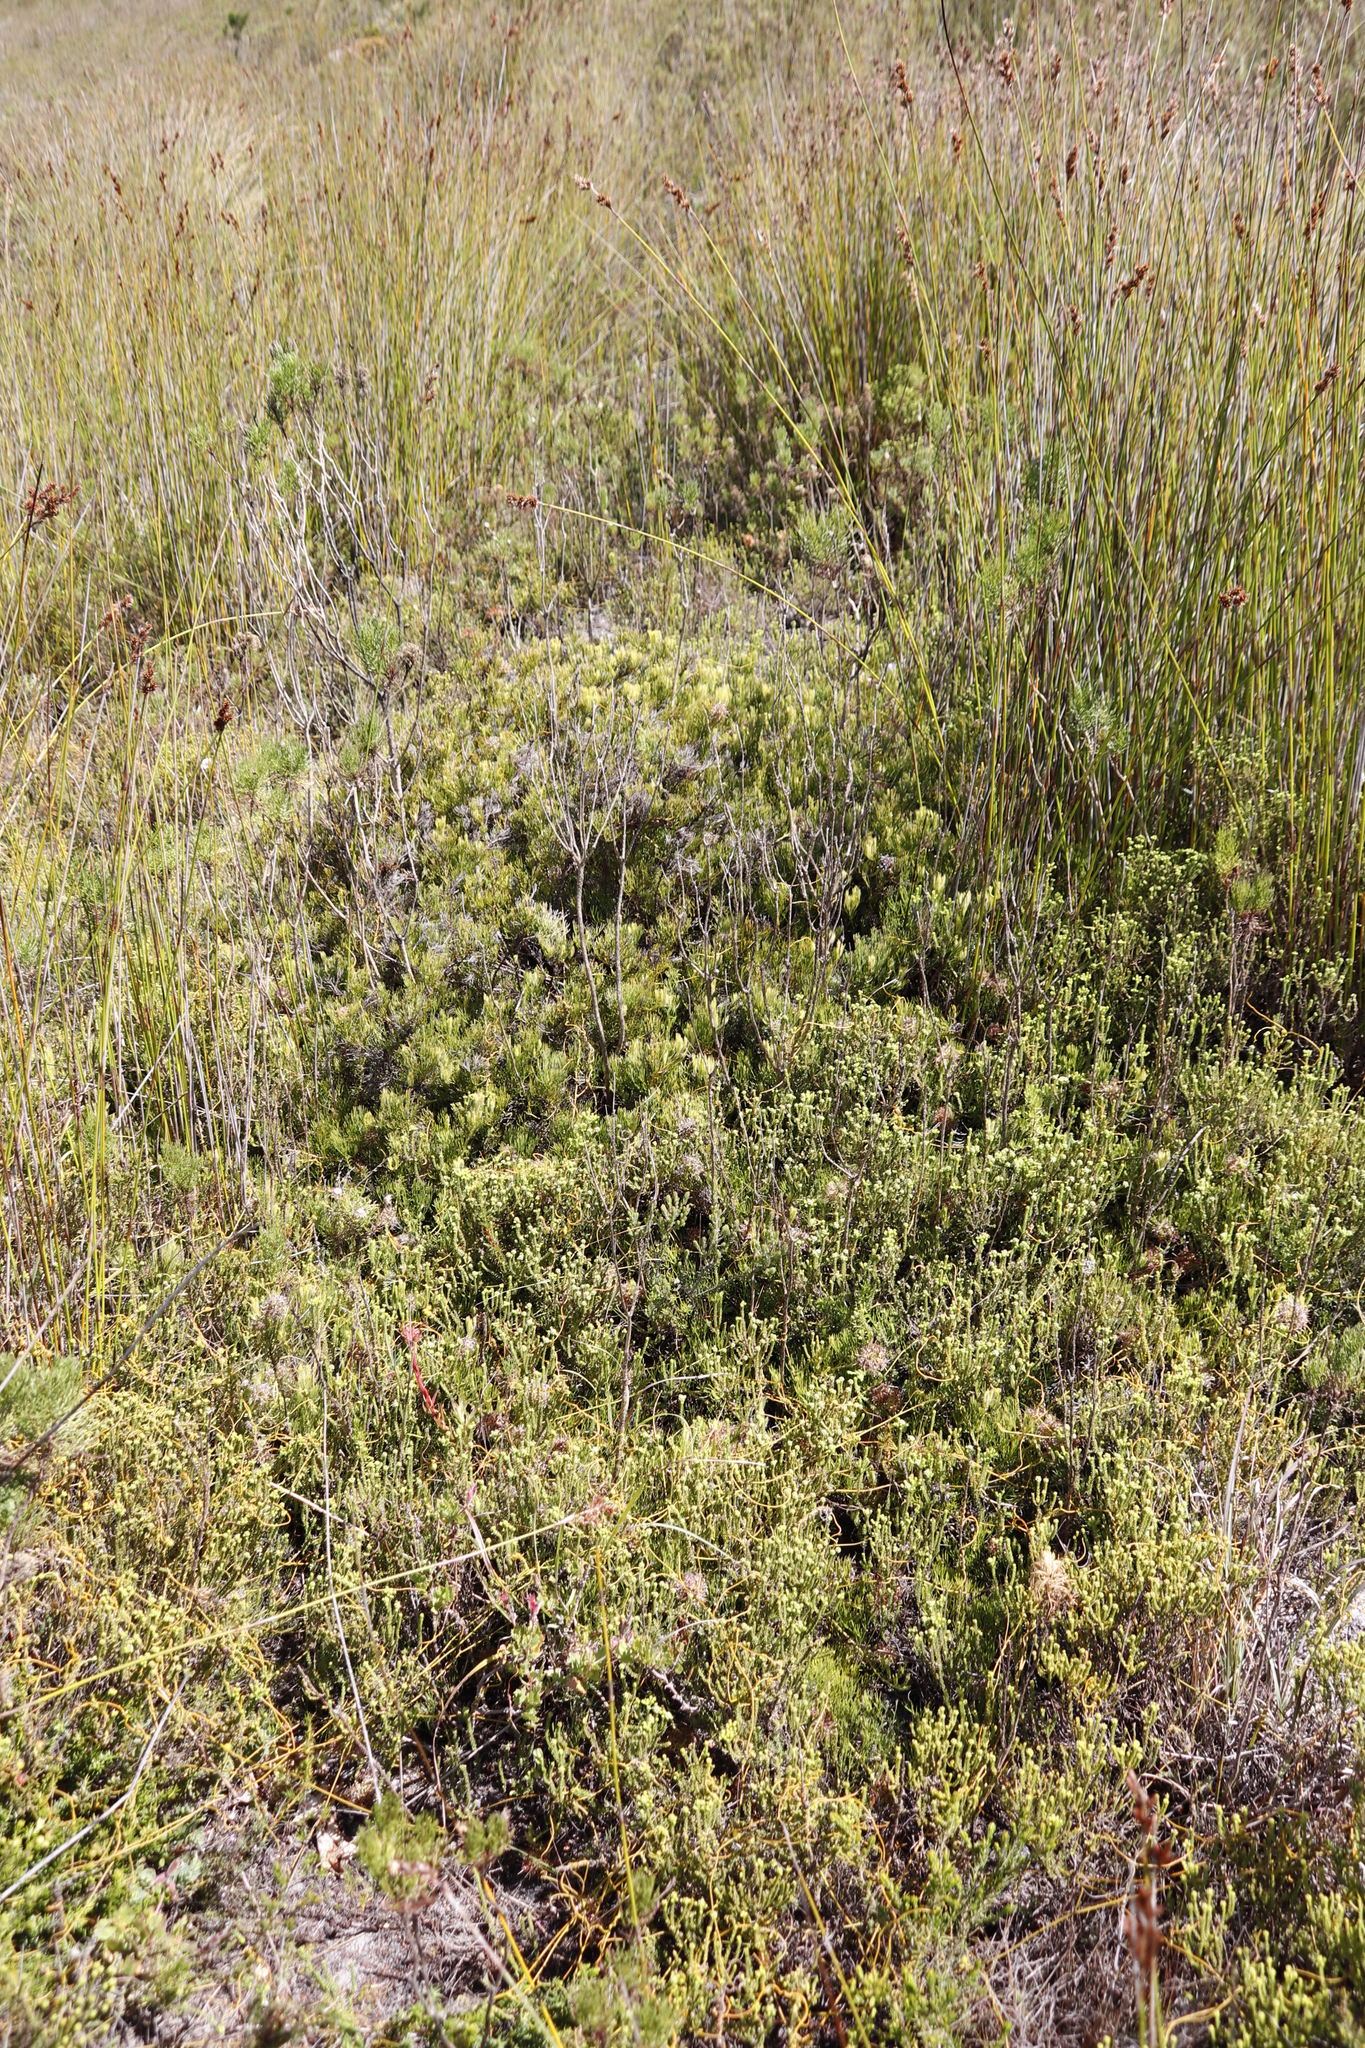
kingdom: Plantae
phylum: Tracheophyta
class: Magnoliopsida
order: Proteales
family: Proteaceae
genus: Serruria
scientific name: Serruria collina
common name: Lost spiderhead
